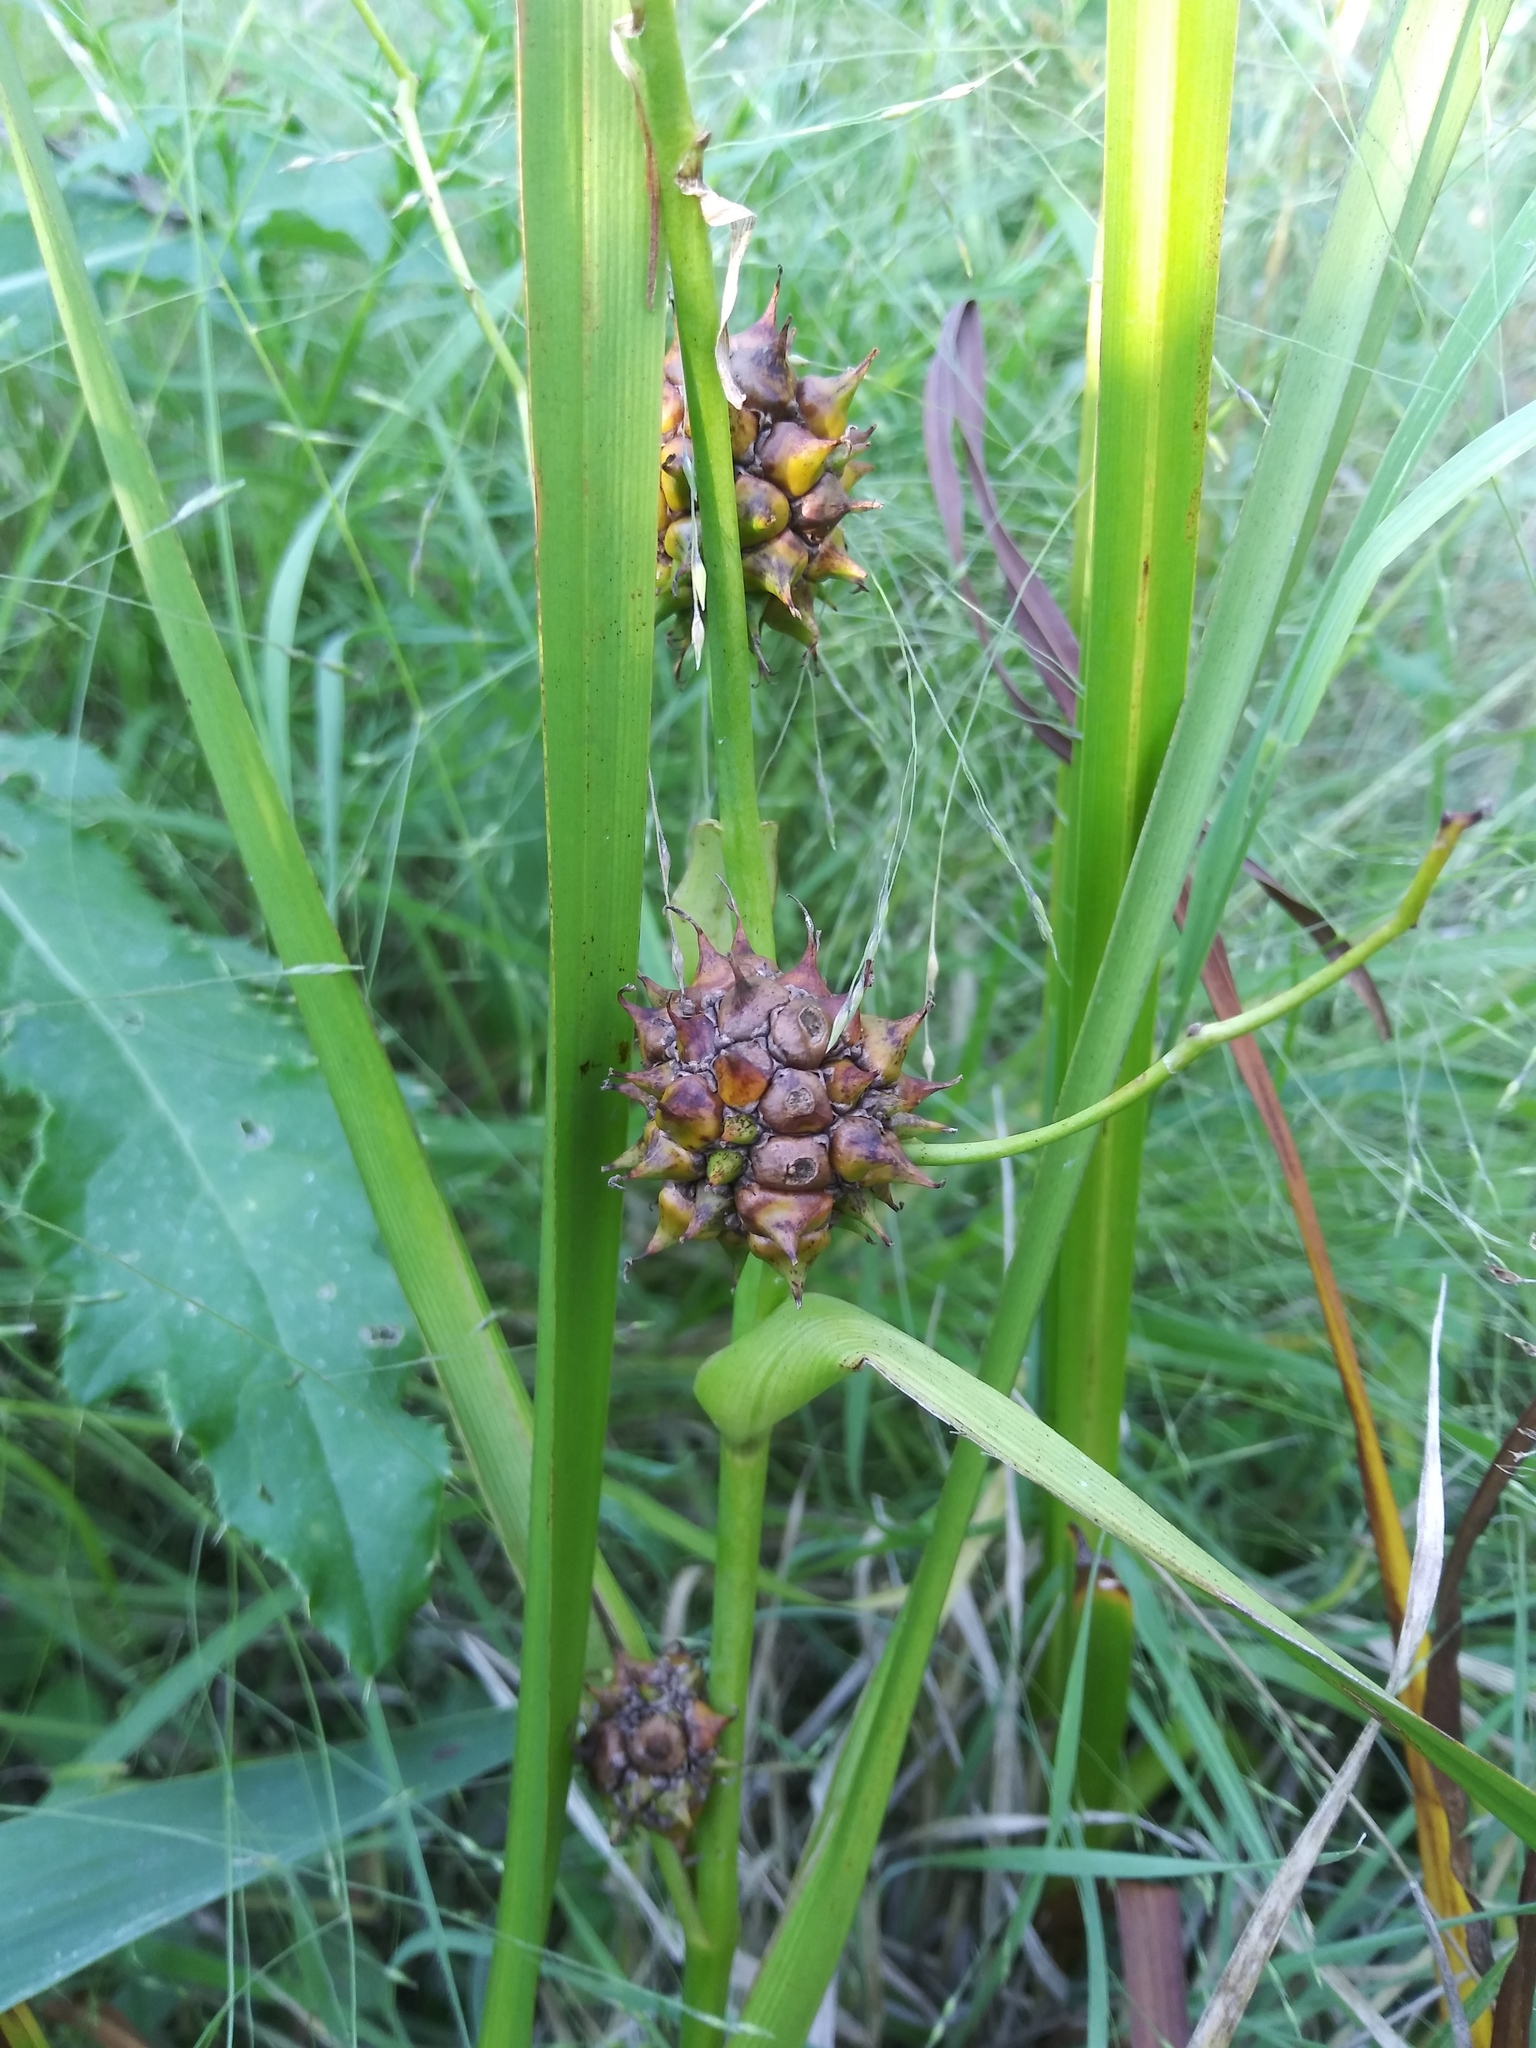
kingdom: Plantae
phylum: Tracheophyta
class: Liliopsida
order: Poales
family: Typhaceae
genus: Sparganium
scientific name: Sparganium eurycarpum
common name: Broad-fruited burreed
